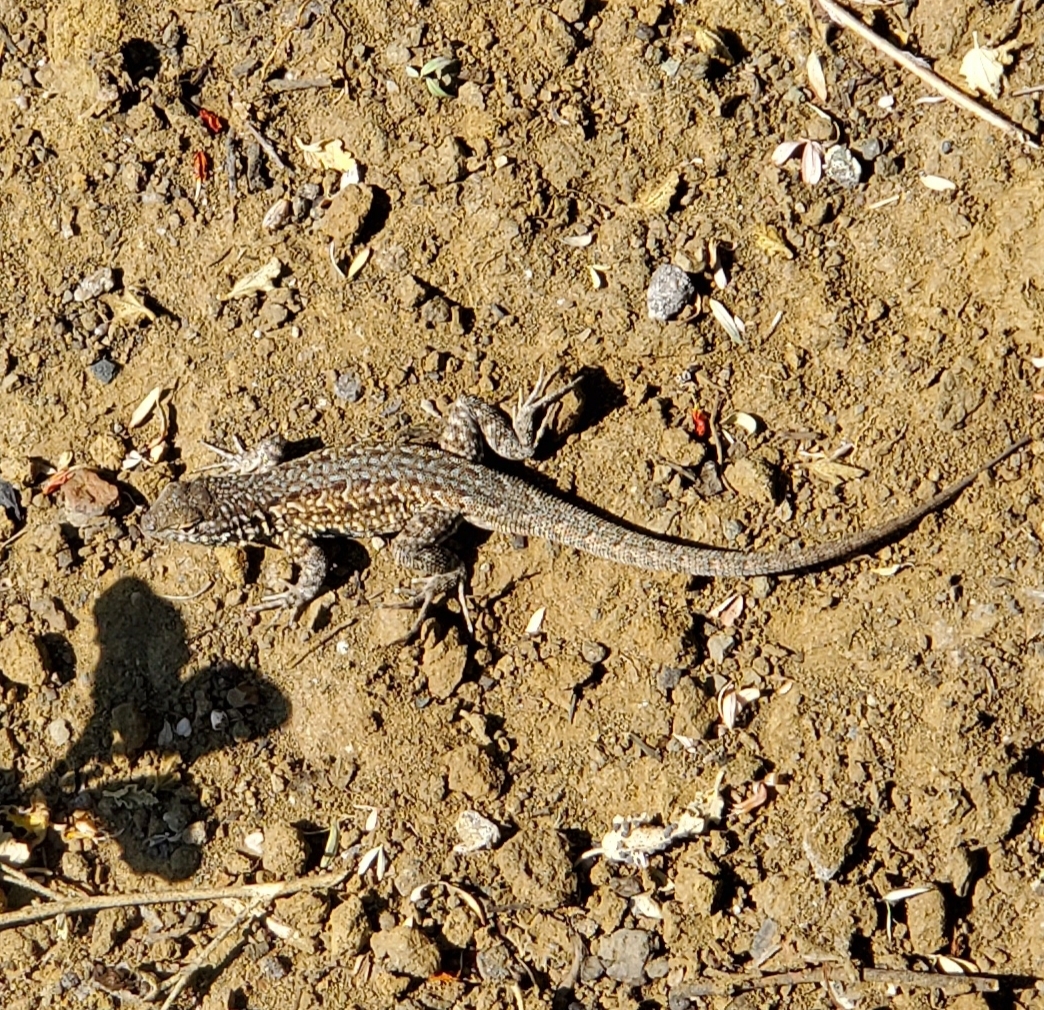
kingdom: Animalia
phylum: Chordata
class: Squamata
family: Phrynosomatidae
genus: Uta
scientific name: Uta stansburiana
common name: Side-blotched lizard
